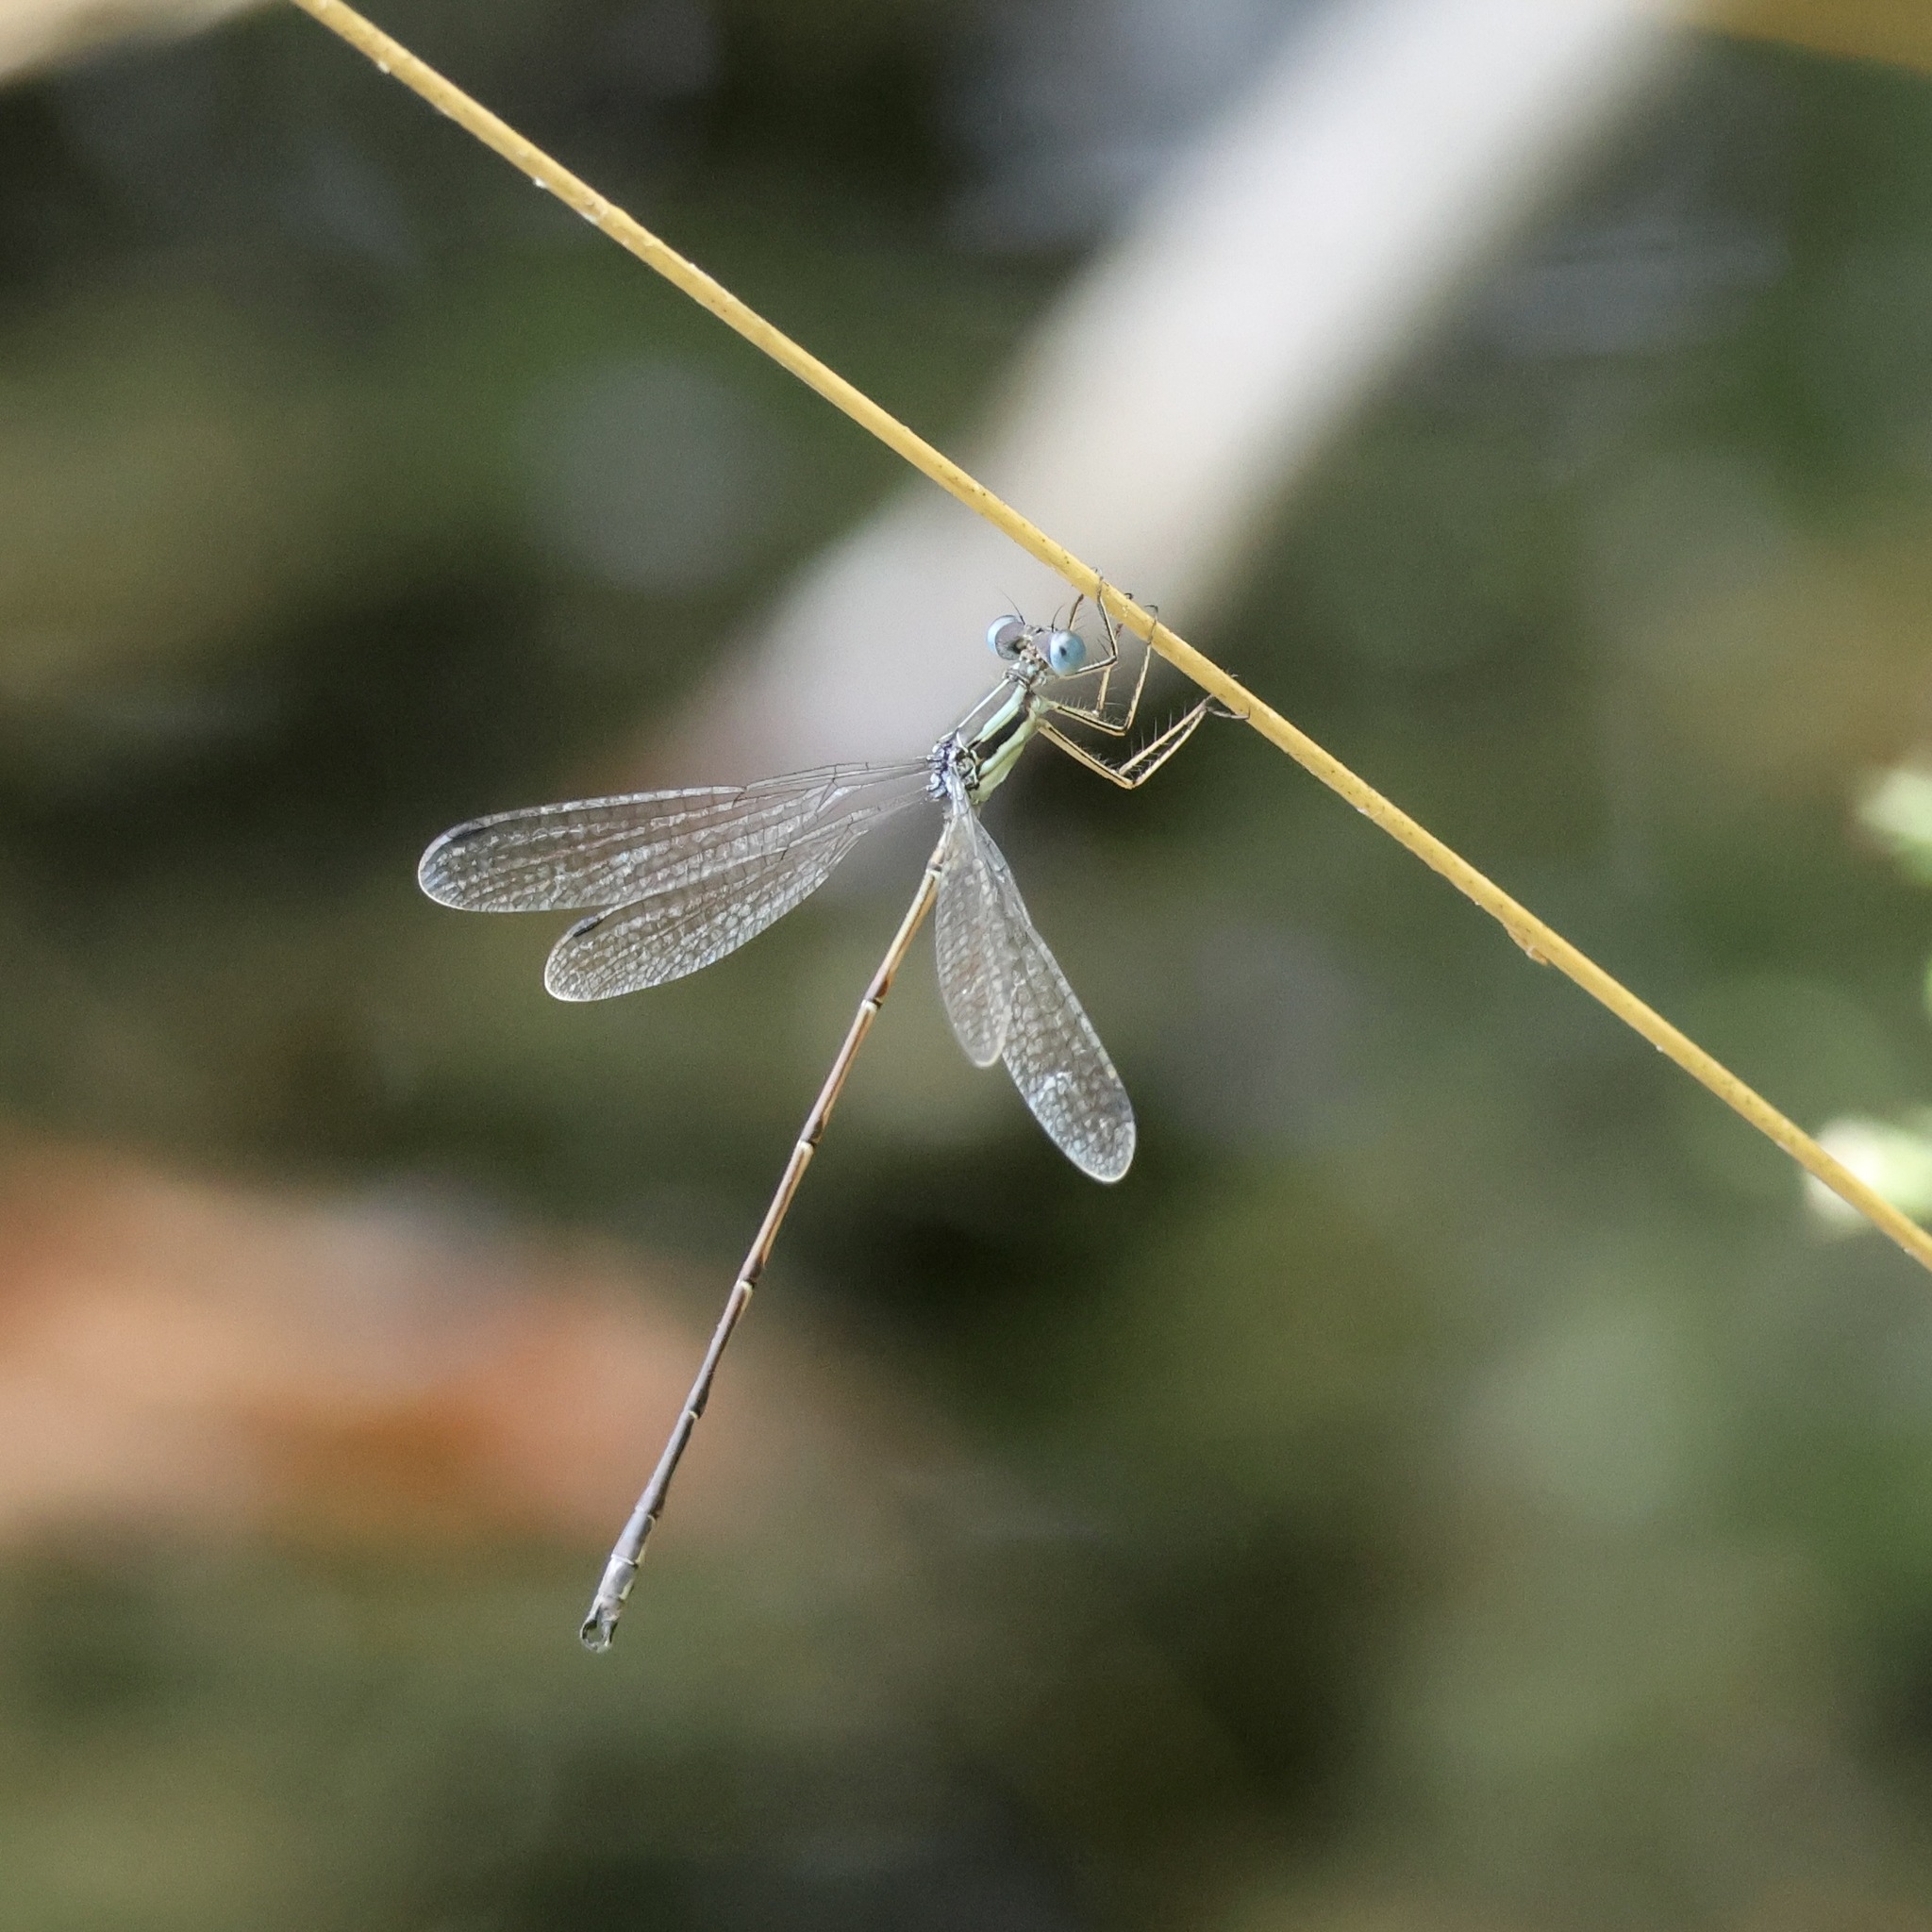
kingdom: Animalia
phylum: Arthropoda
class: Insecta
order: Odonata
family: Lestidae
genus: Lestes
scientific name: Lestes rectangularis
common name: Slender spreadwing
